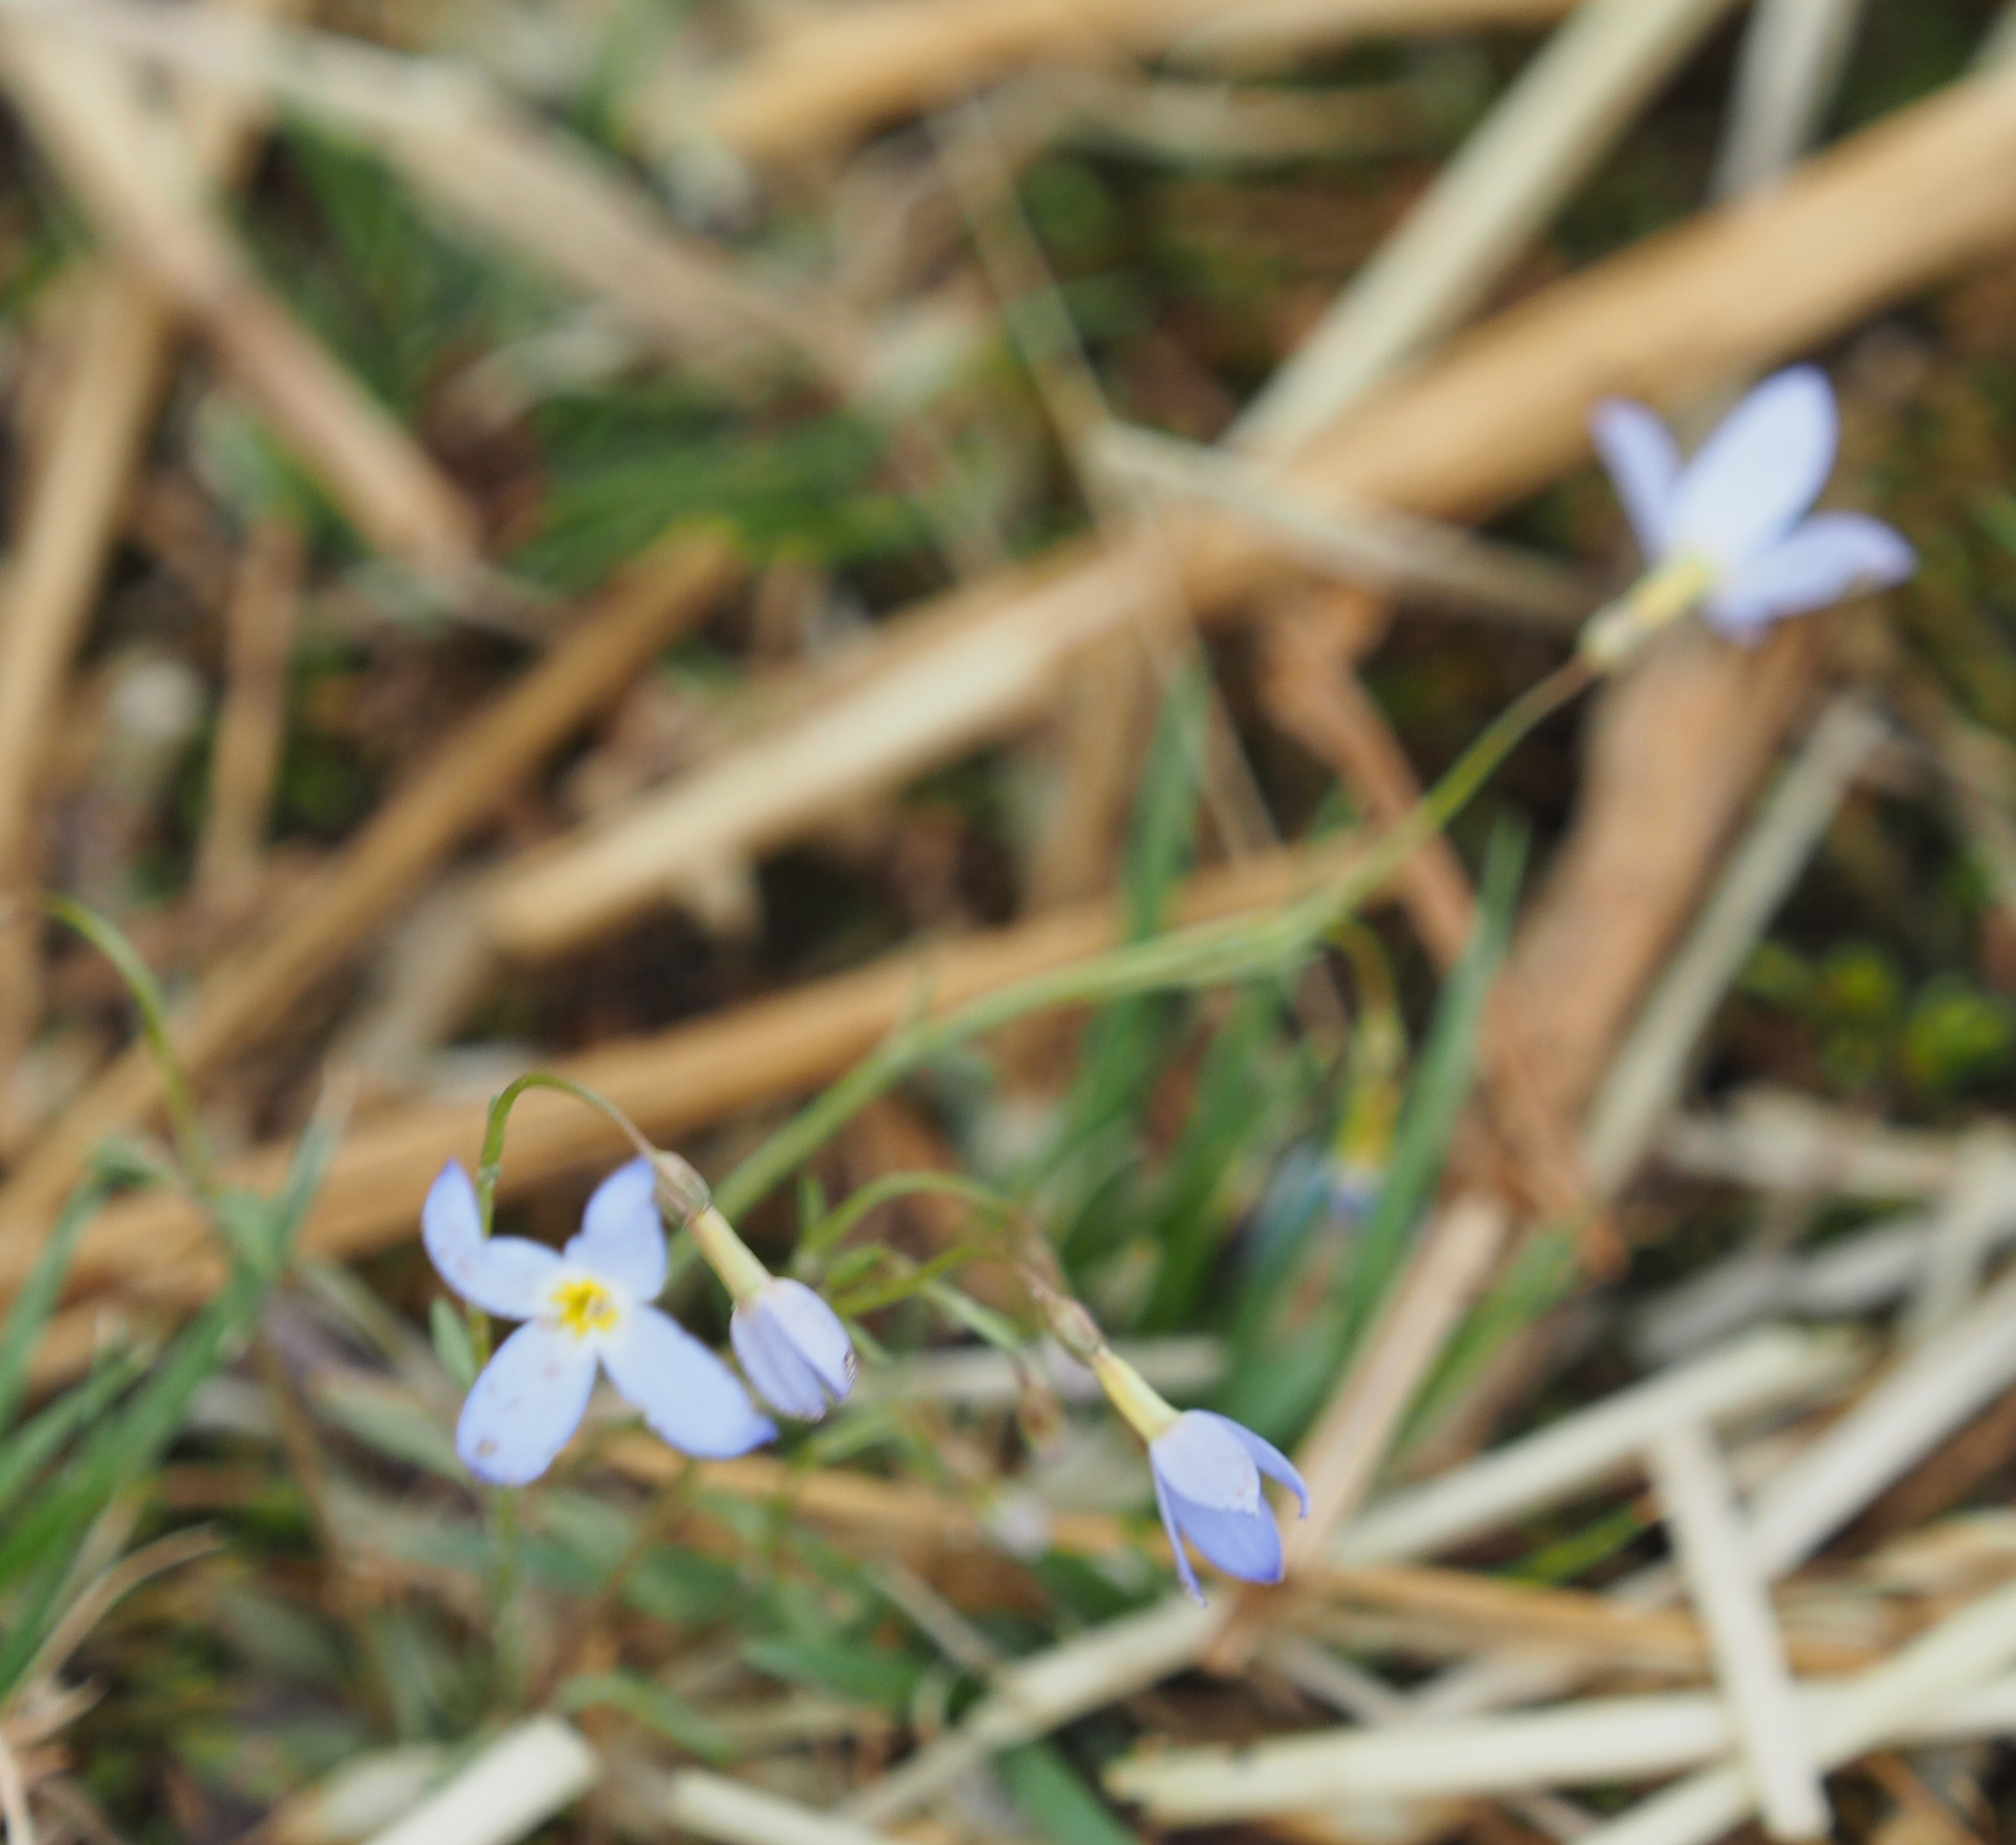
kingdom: Plantae
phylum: Tracheophyta
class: Magnoliopsida
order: Gentianales
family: Rubiaceae
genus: Houstonia
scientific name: Houstonia caerulea
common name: Bluets
